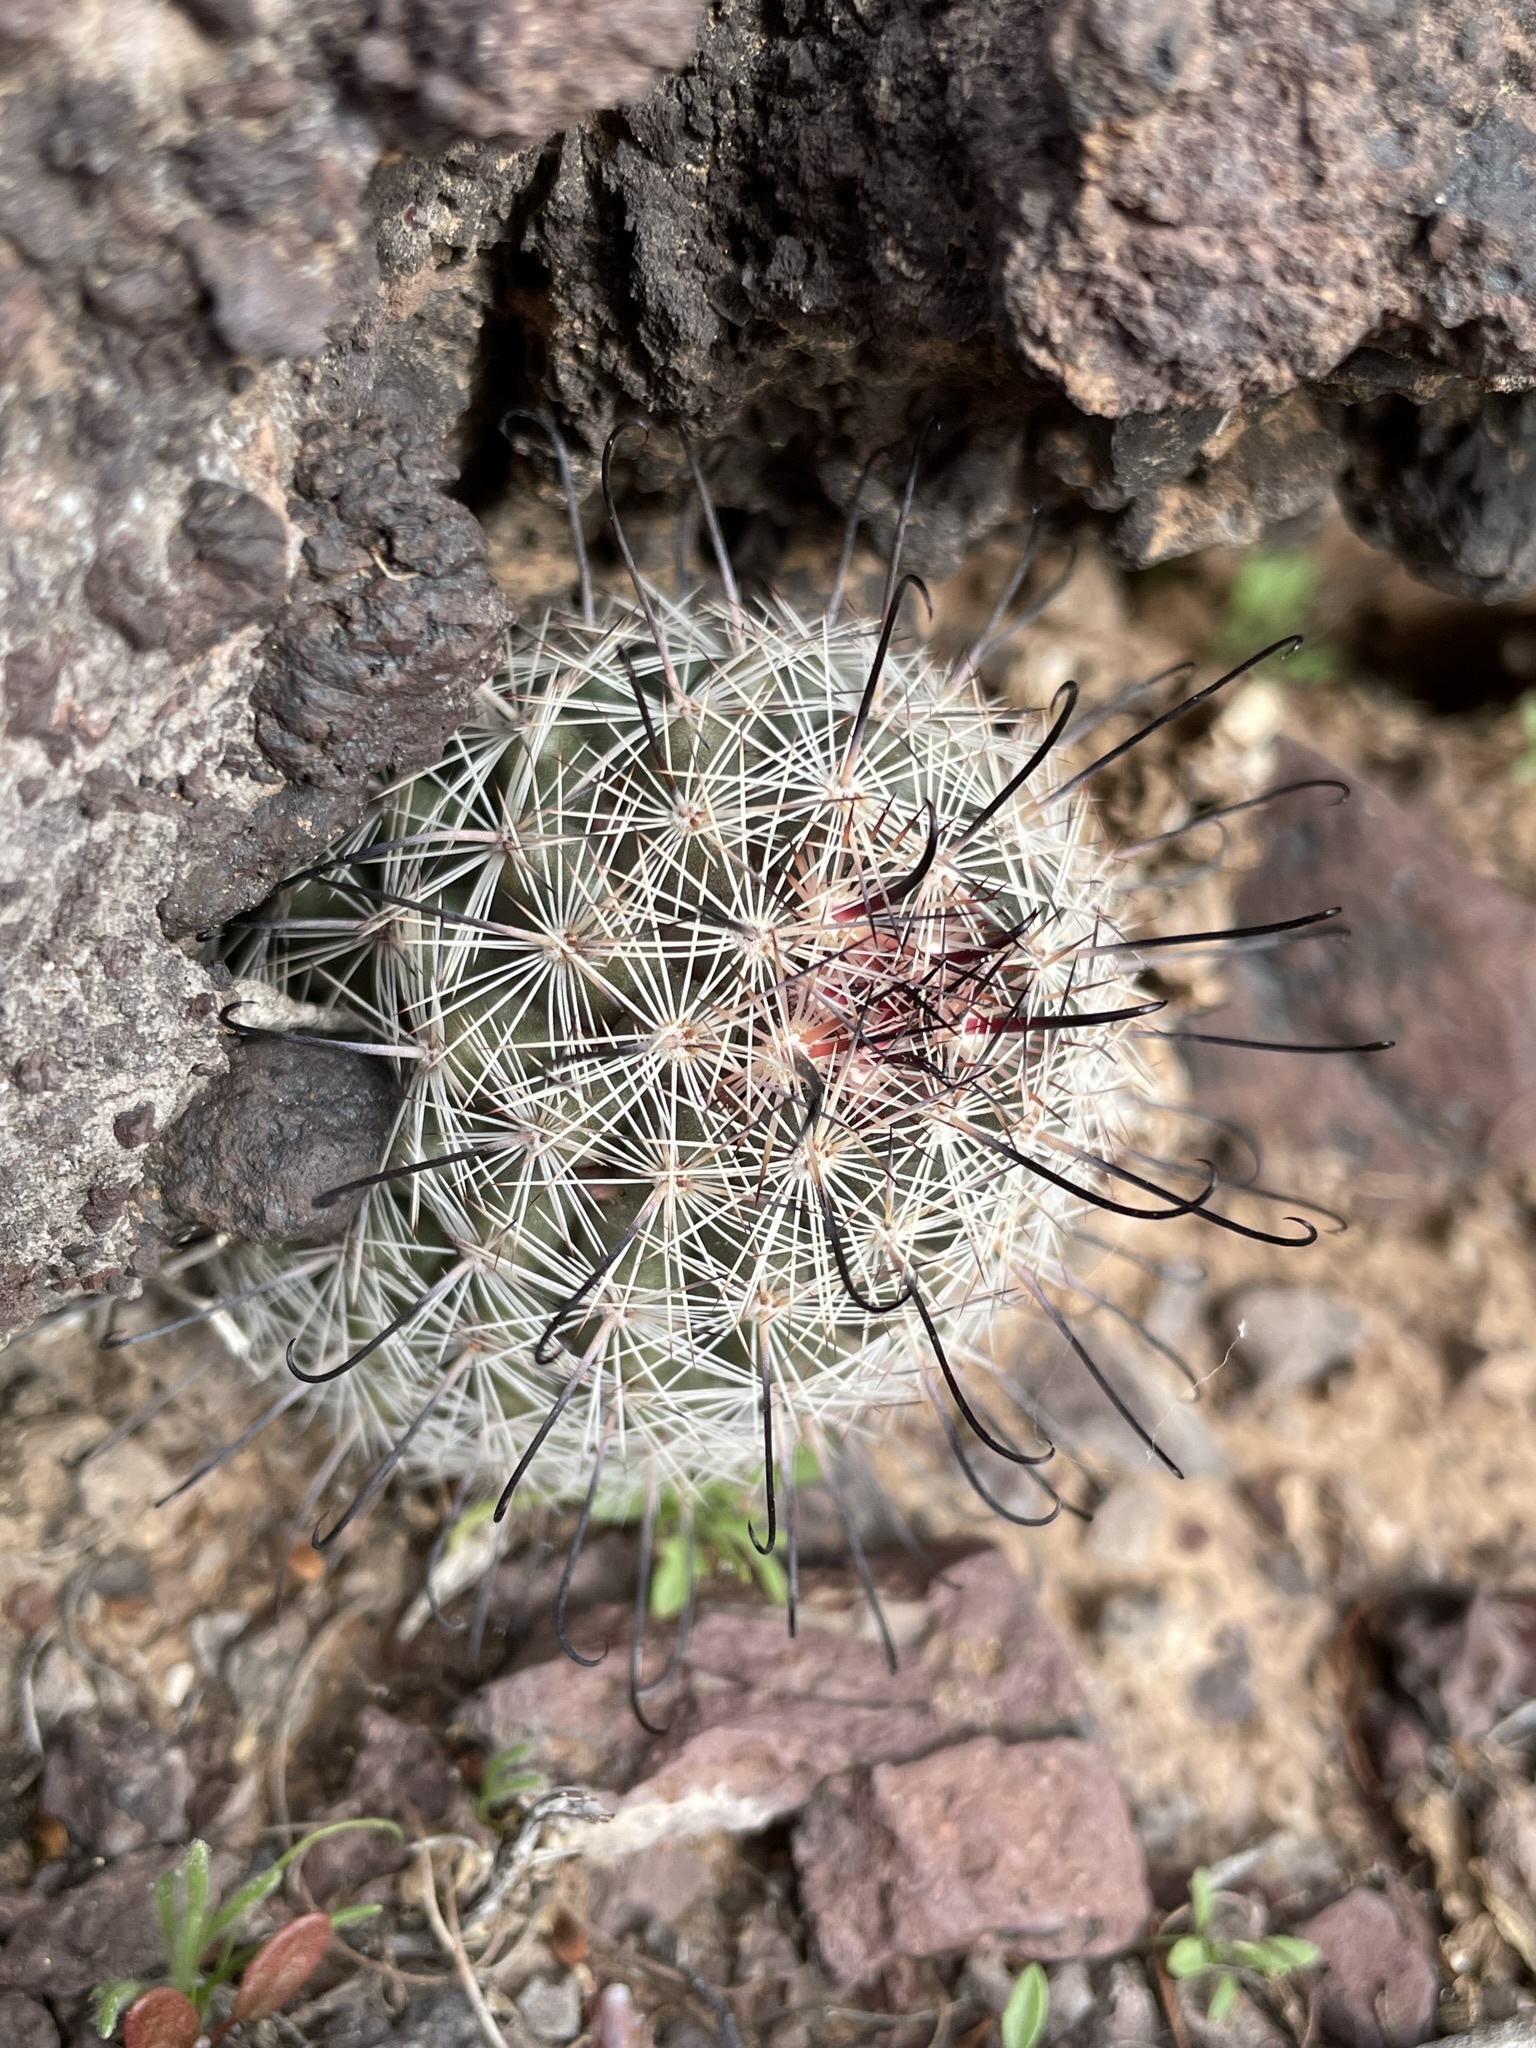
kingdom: Plantae
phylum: Tracheophyta
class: Magnoliopsida
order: Caryophyllales
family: Cactaceae
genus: Cochemiea
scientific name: Cochemiea grahamii
